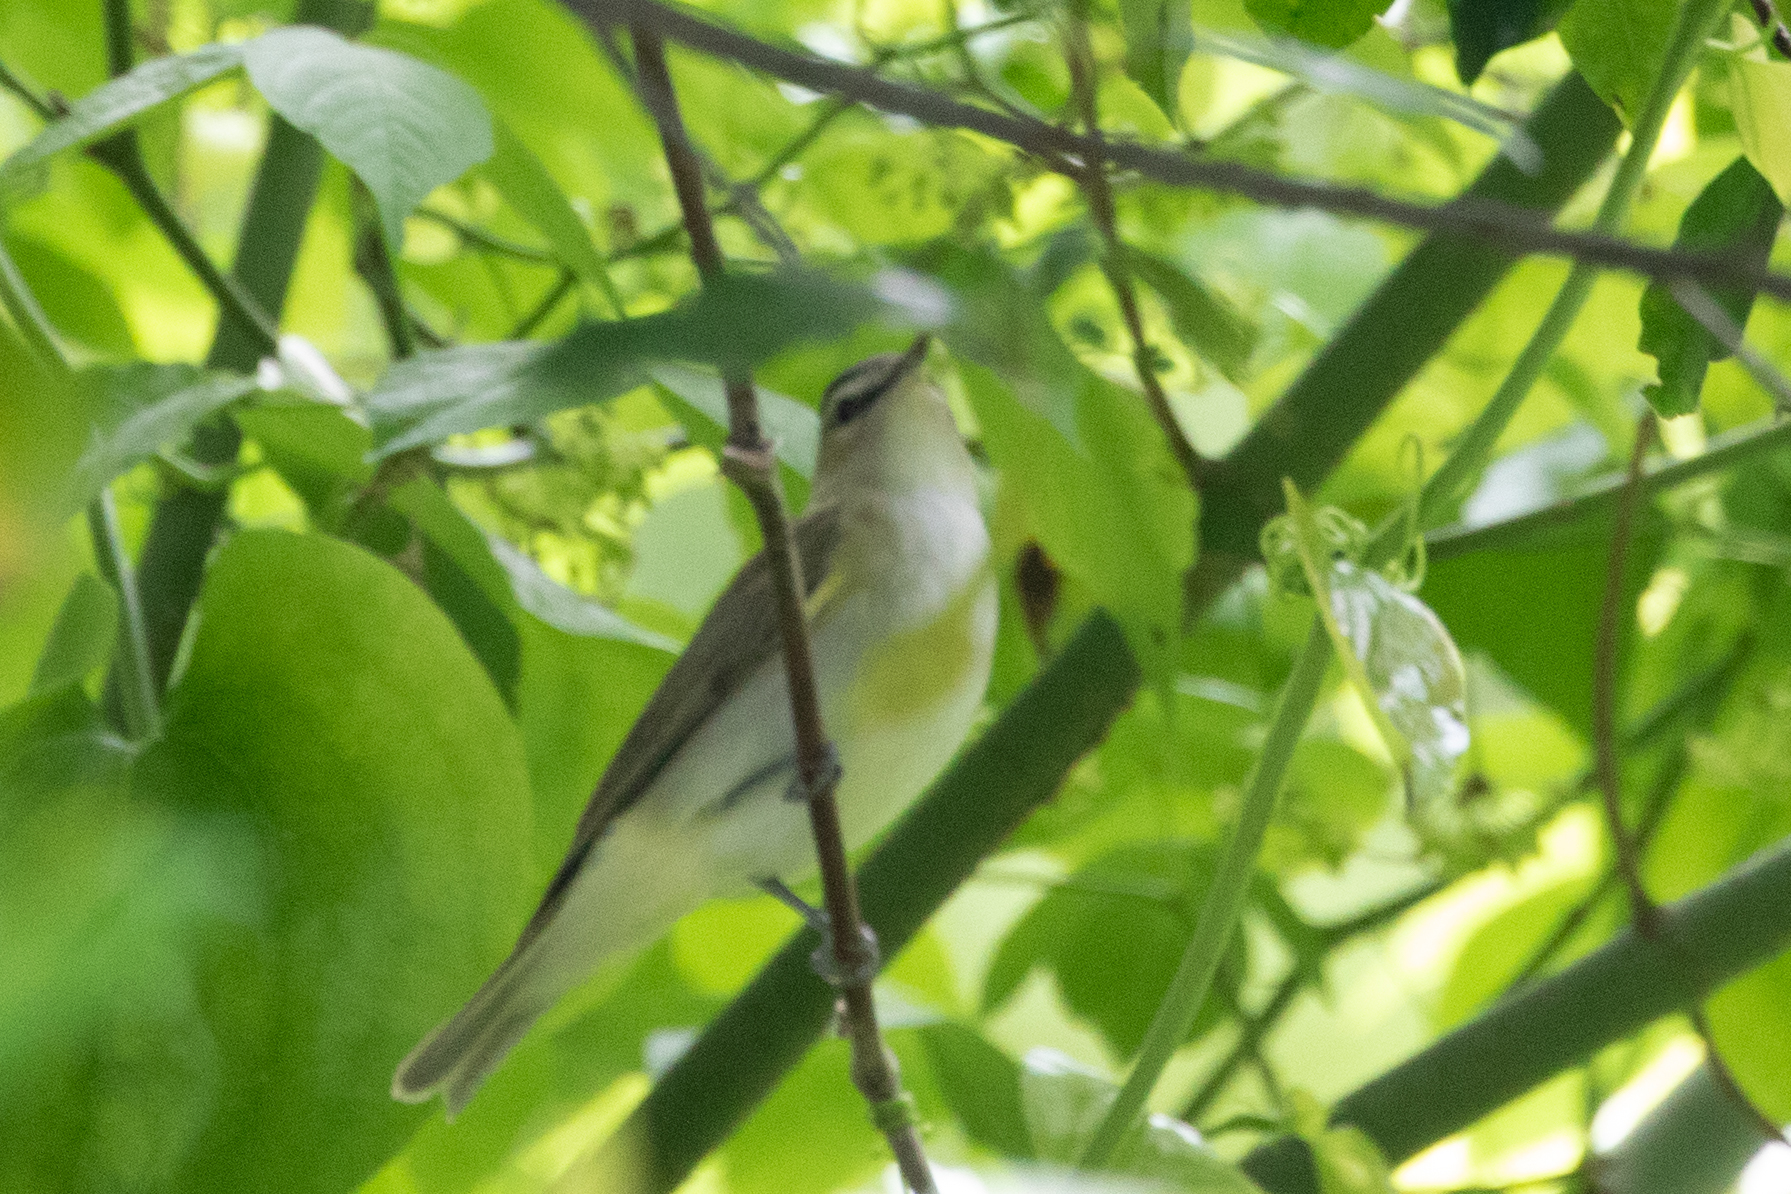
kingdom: Animalia
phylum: Chordata
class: Aves
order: Passeriformes
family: Vireonidae
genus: Vireo
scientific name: Vireo olivaceus
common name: Red-eyed vireo
